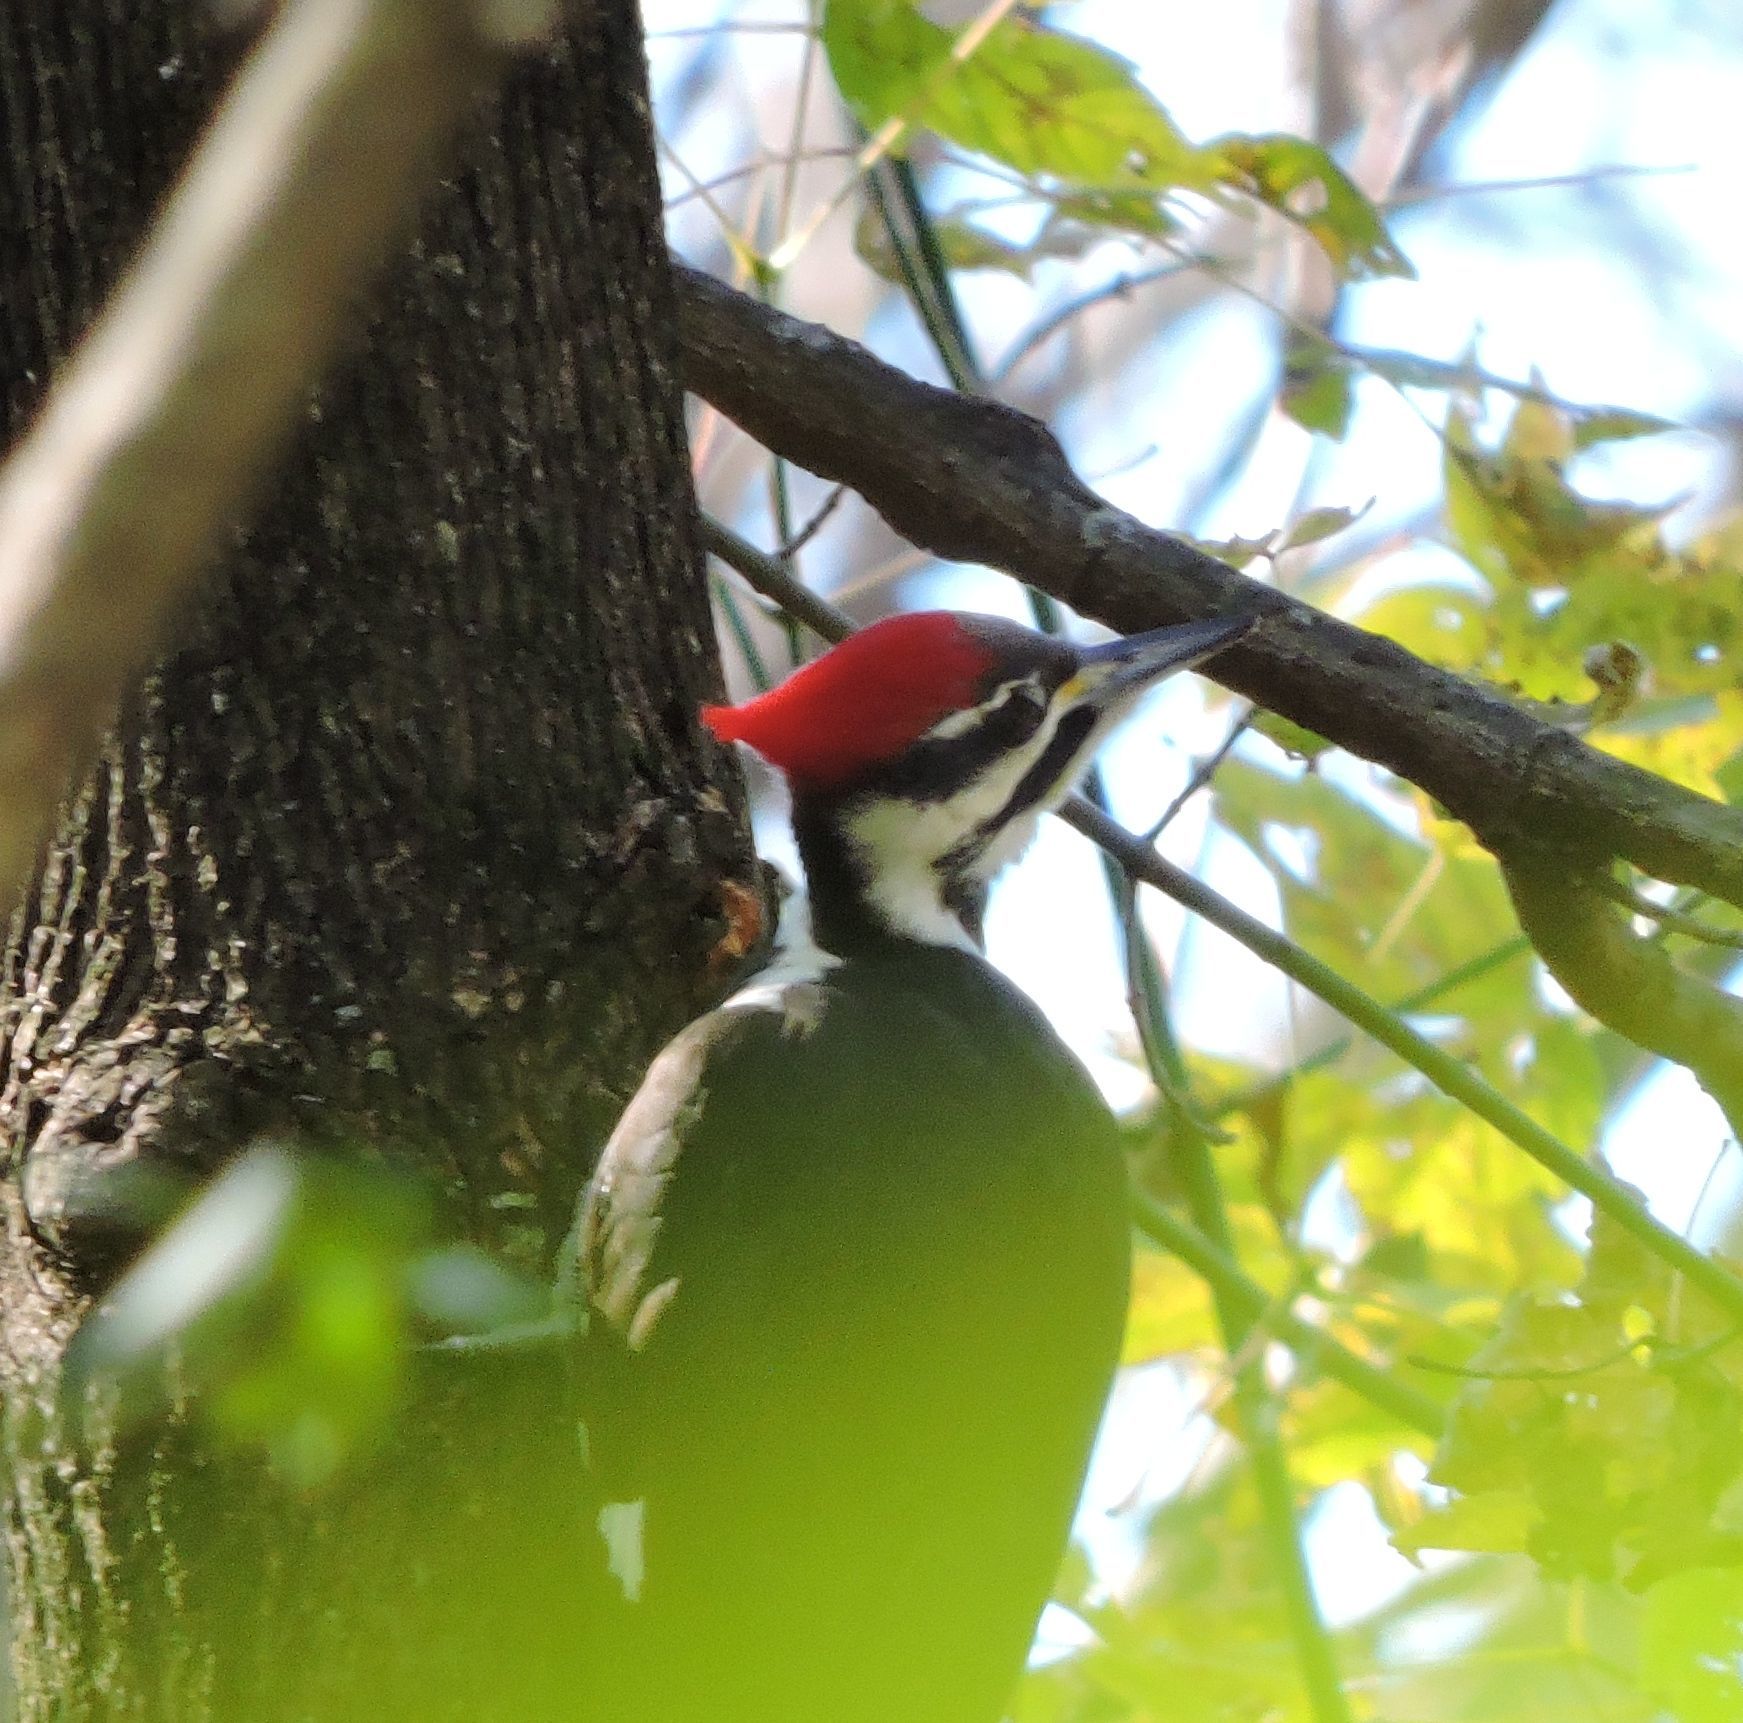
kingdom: Animalia
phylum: Chordata
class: Aves
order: Piciformes
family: Picidae
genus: Dryocopus
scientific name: Dryocopus pileatus
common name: Pileated woodpecker
